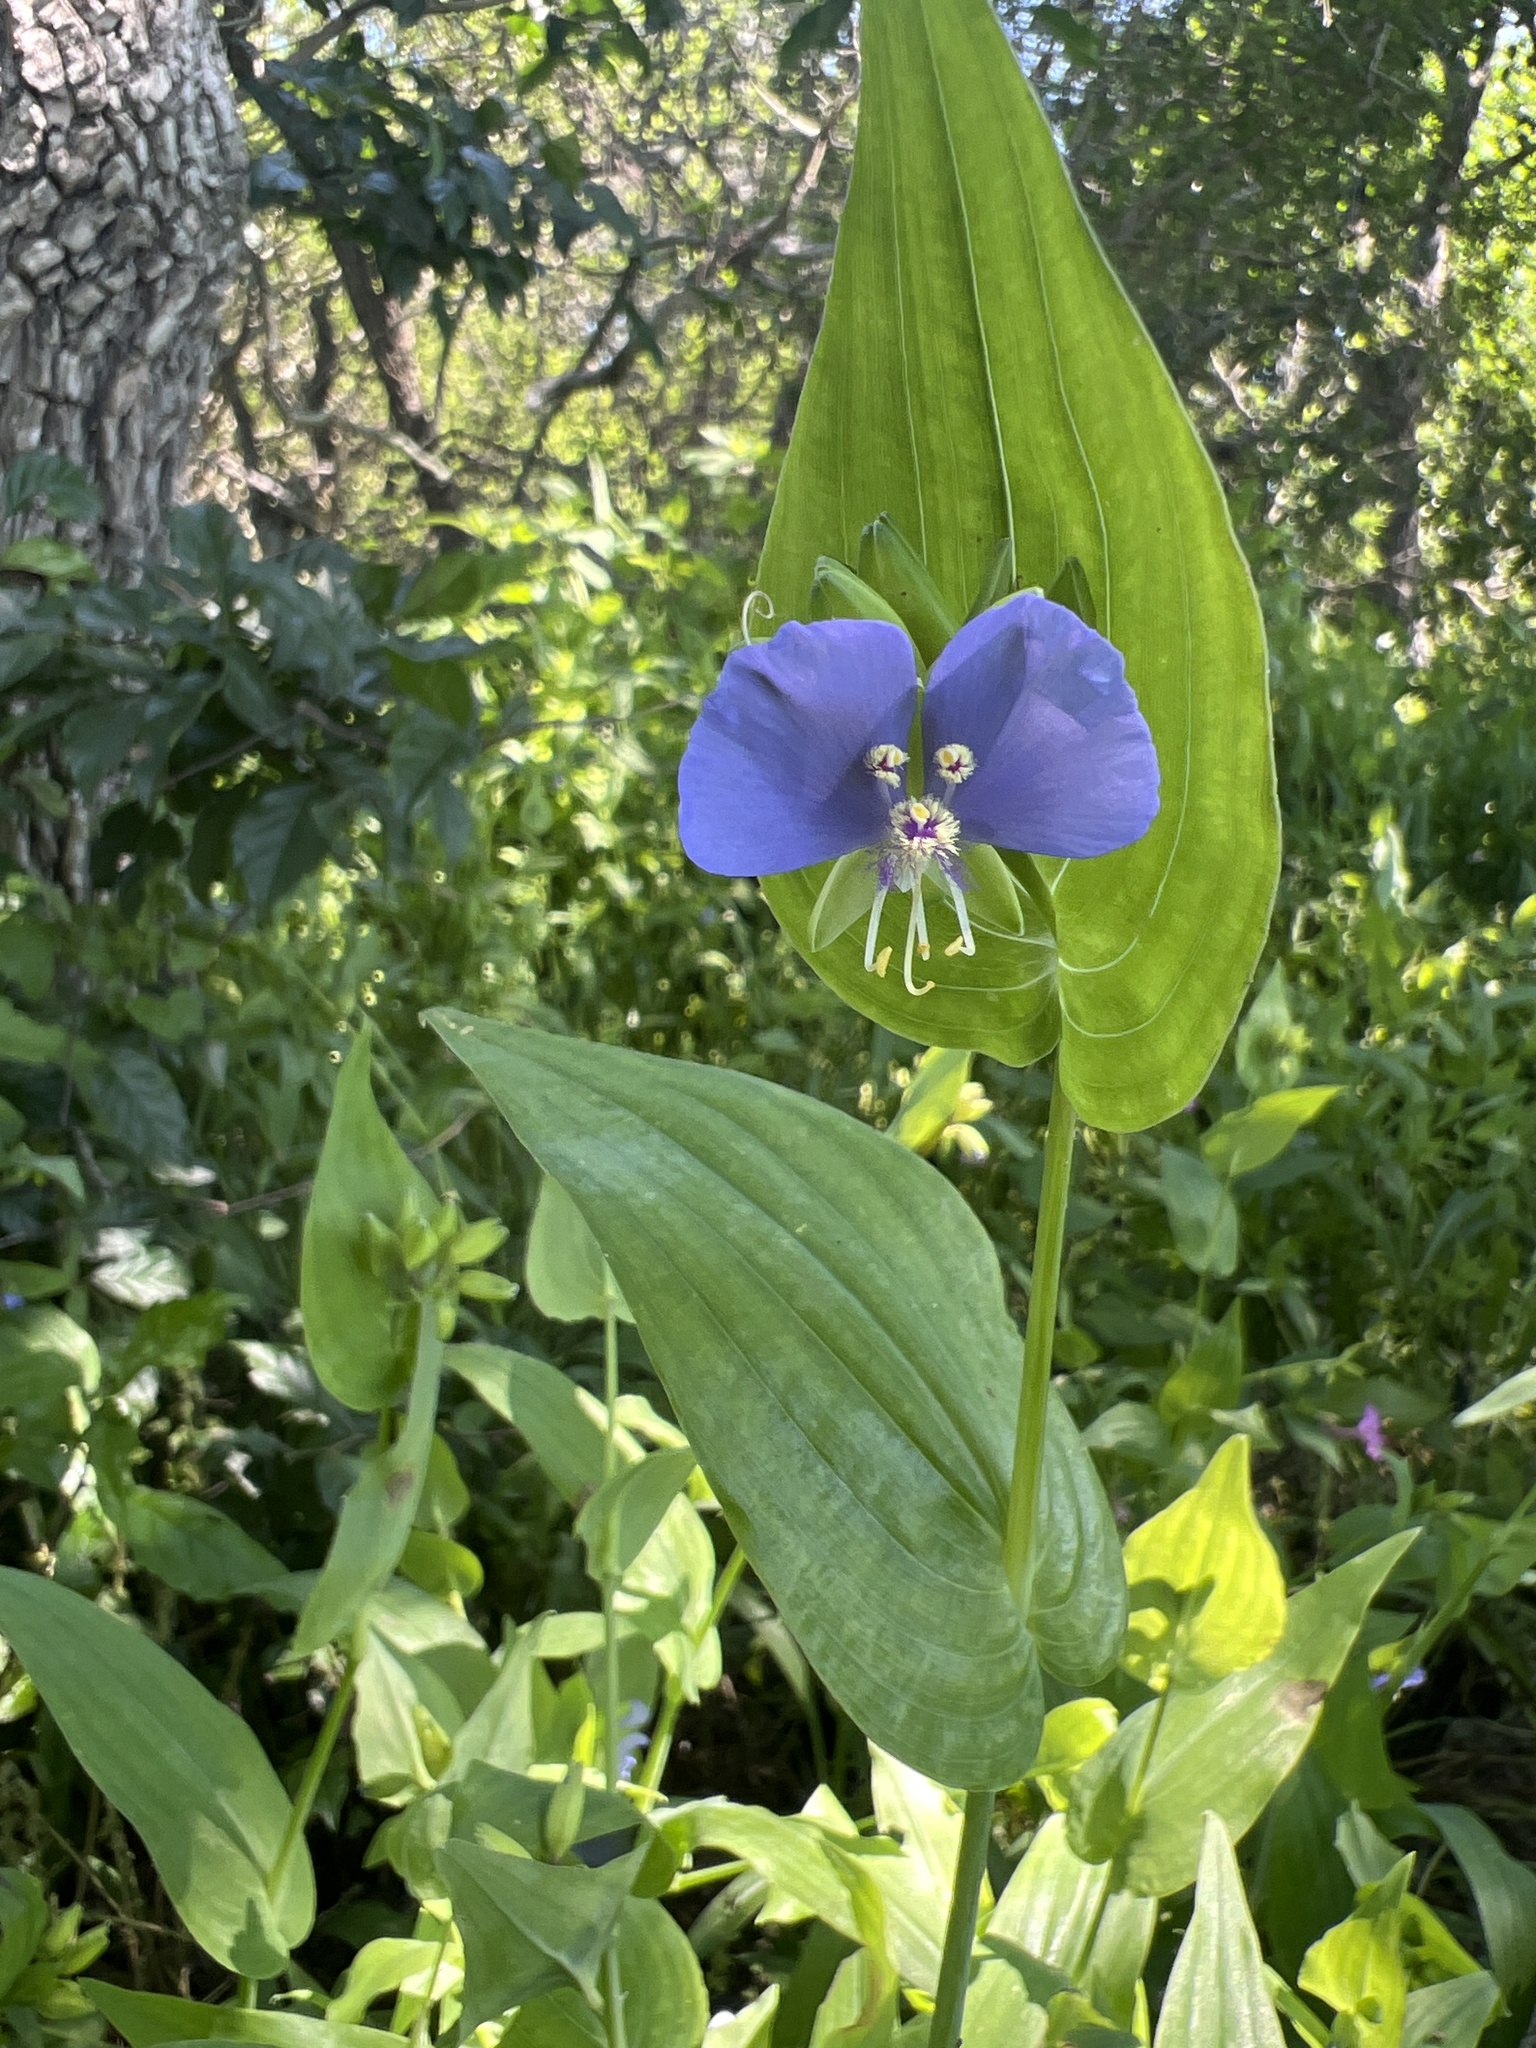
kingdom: Plantae
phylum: Tracheophyta
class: Liliopsida
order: Commelinales
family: Commelinaceae
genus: Tinantia
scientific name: Tinantia anomala
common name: False dayflower
